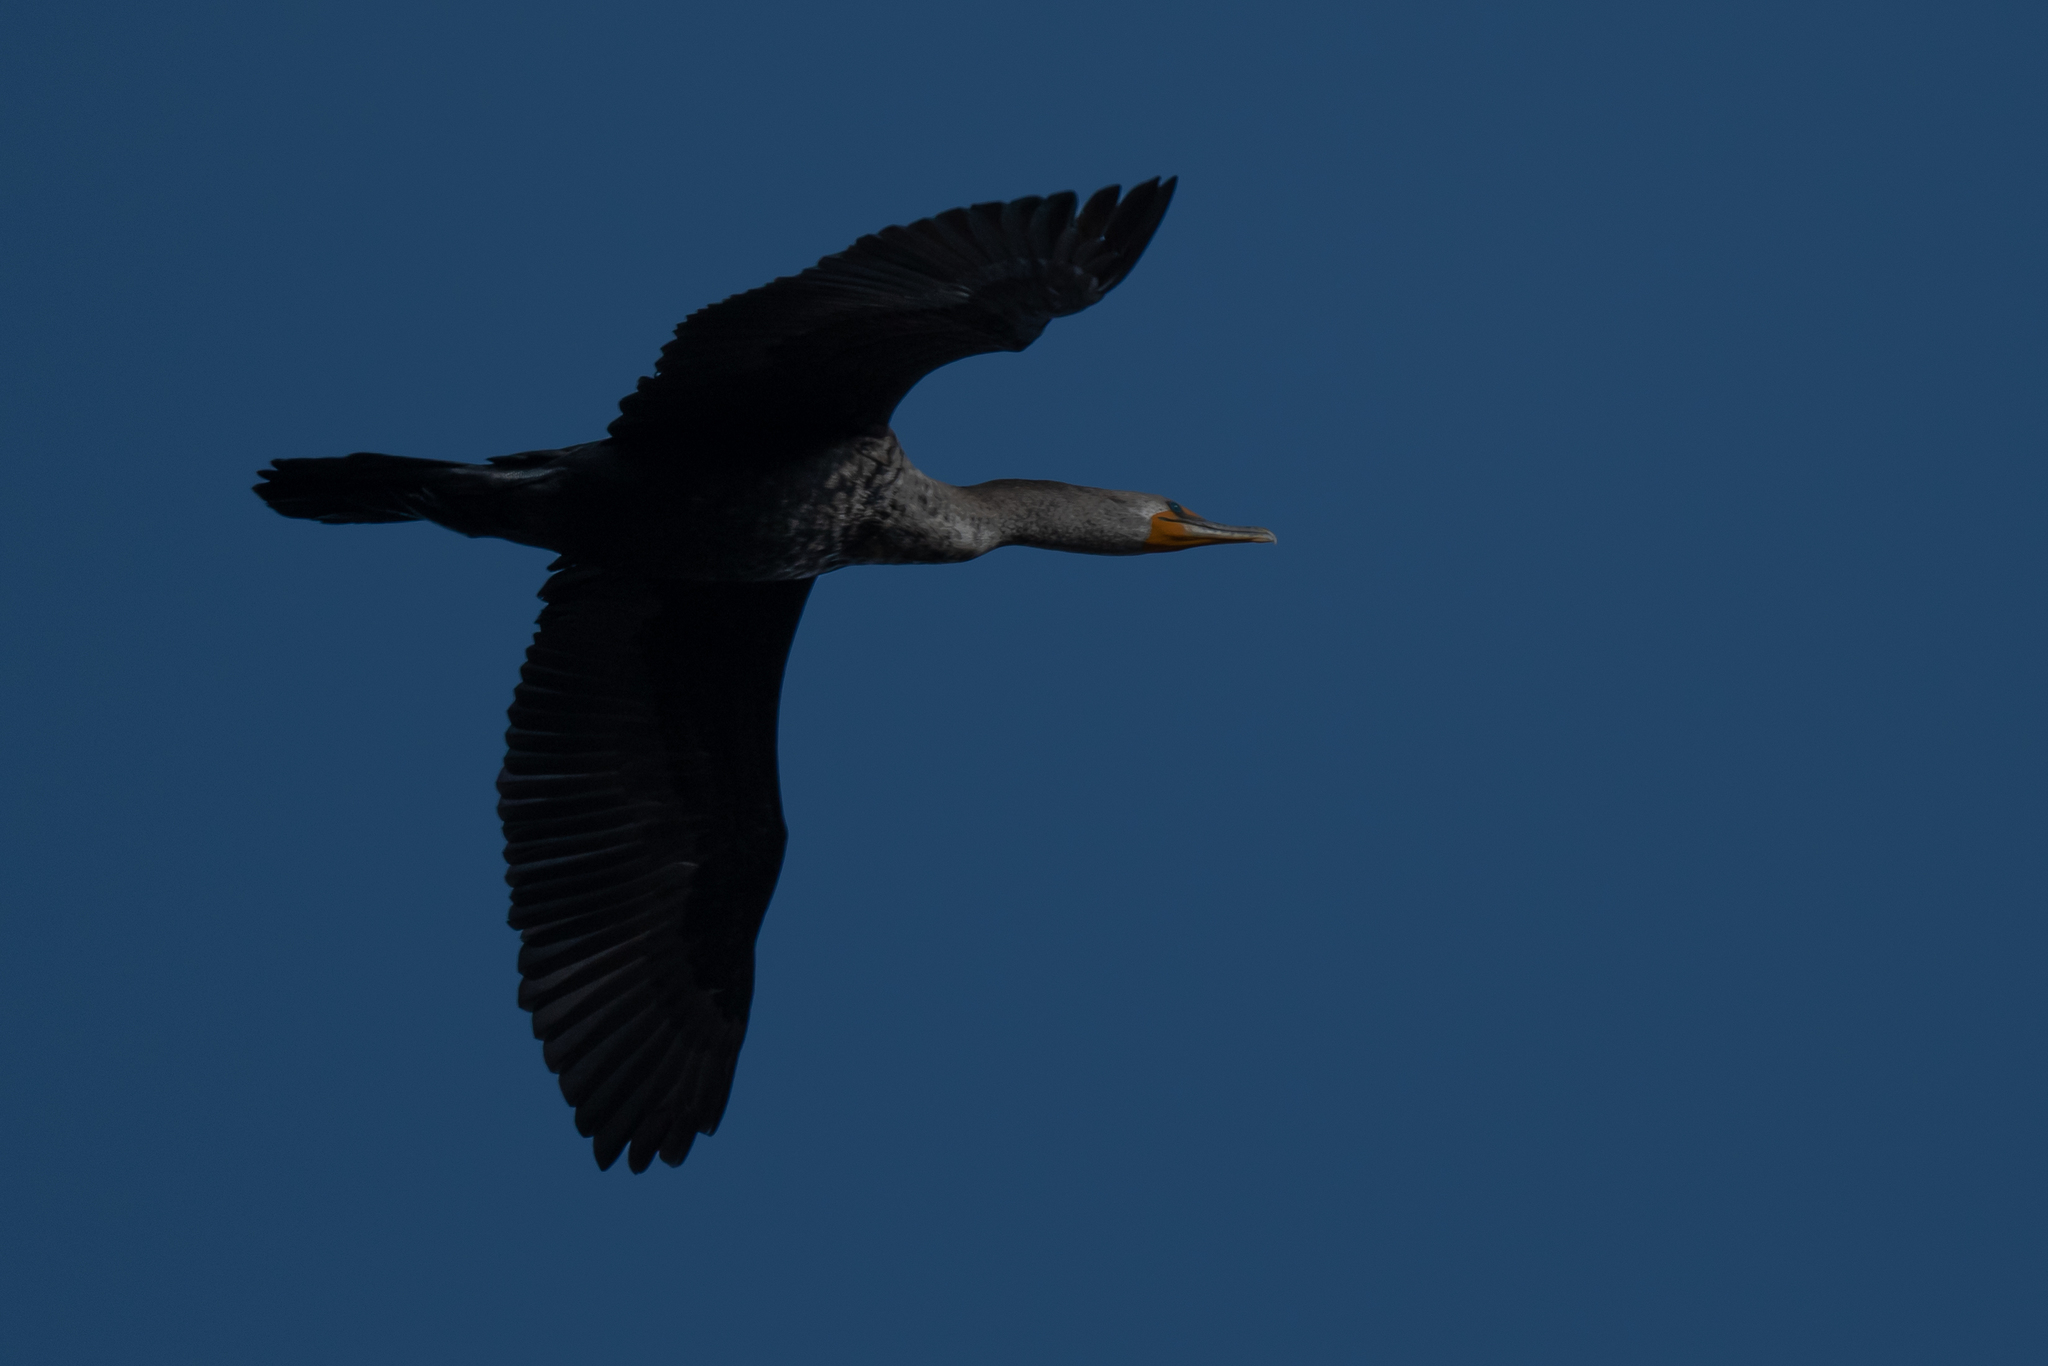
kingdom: Animalia
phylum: Chordata
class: Aves
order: Suliformes
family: Phalacrocoracidae
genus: Phalacrocorax
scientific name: Phalacrocorax auritus
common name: Double-crested cormorant
